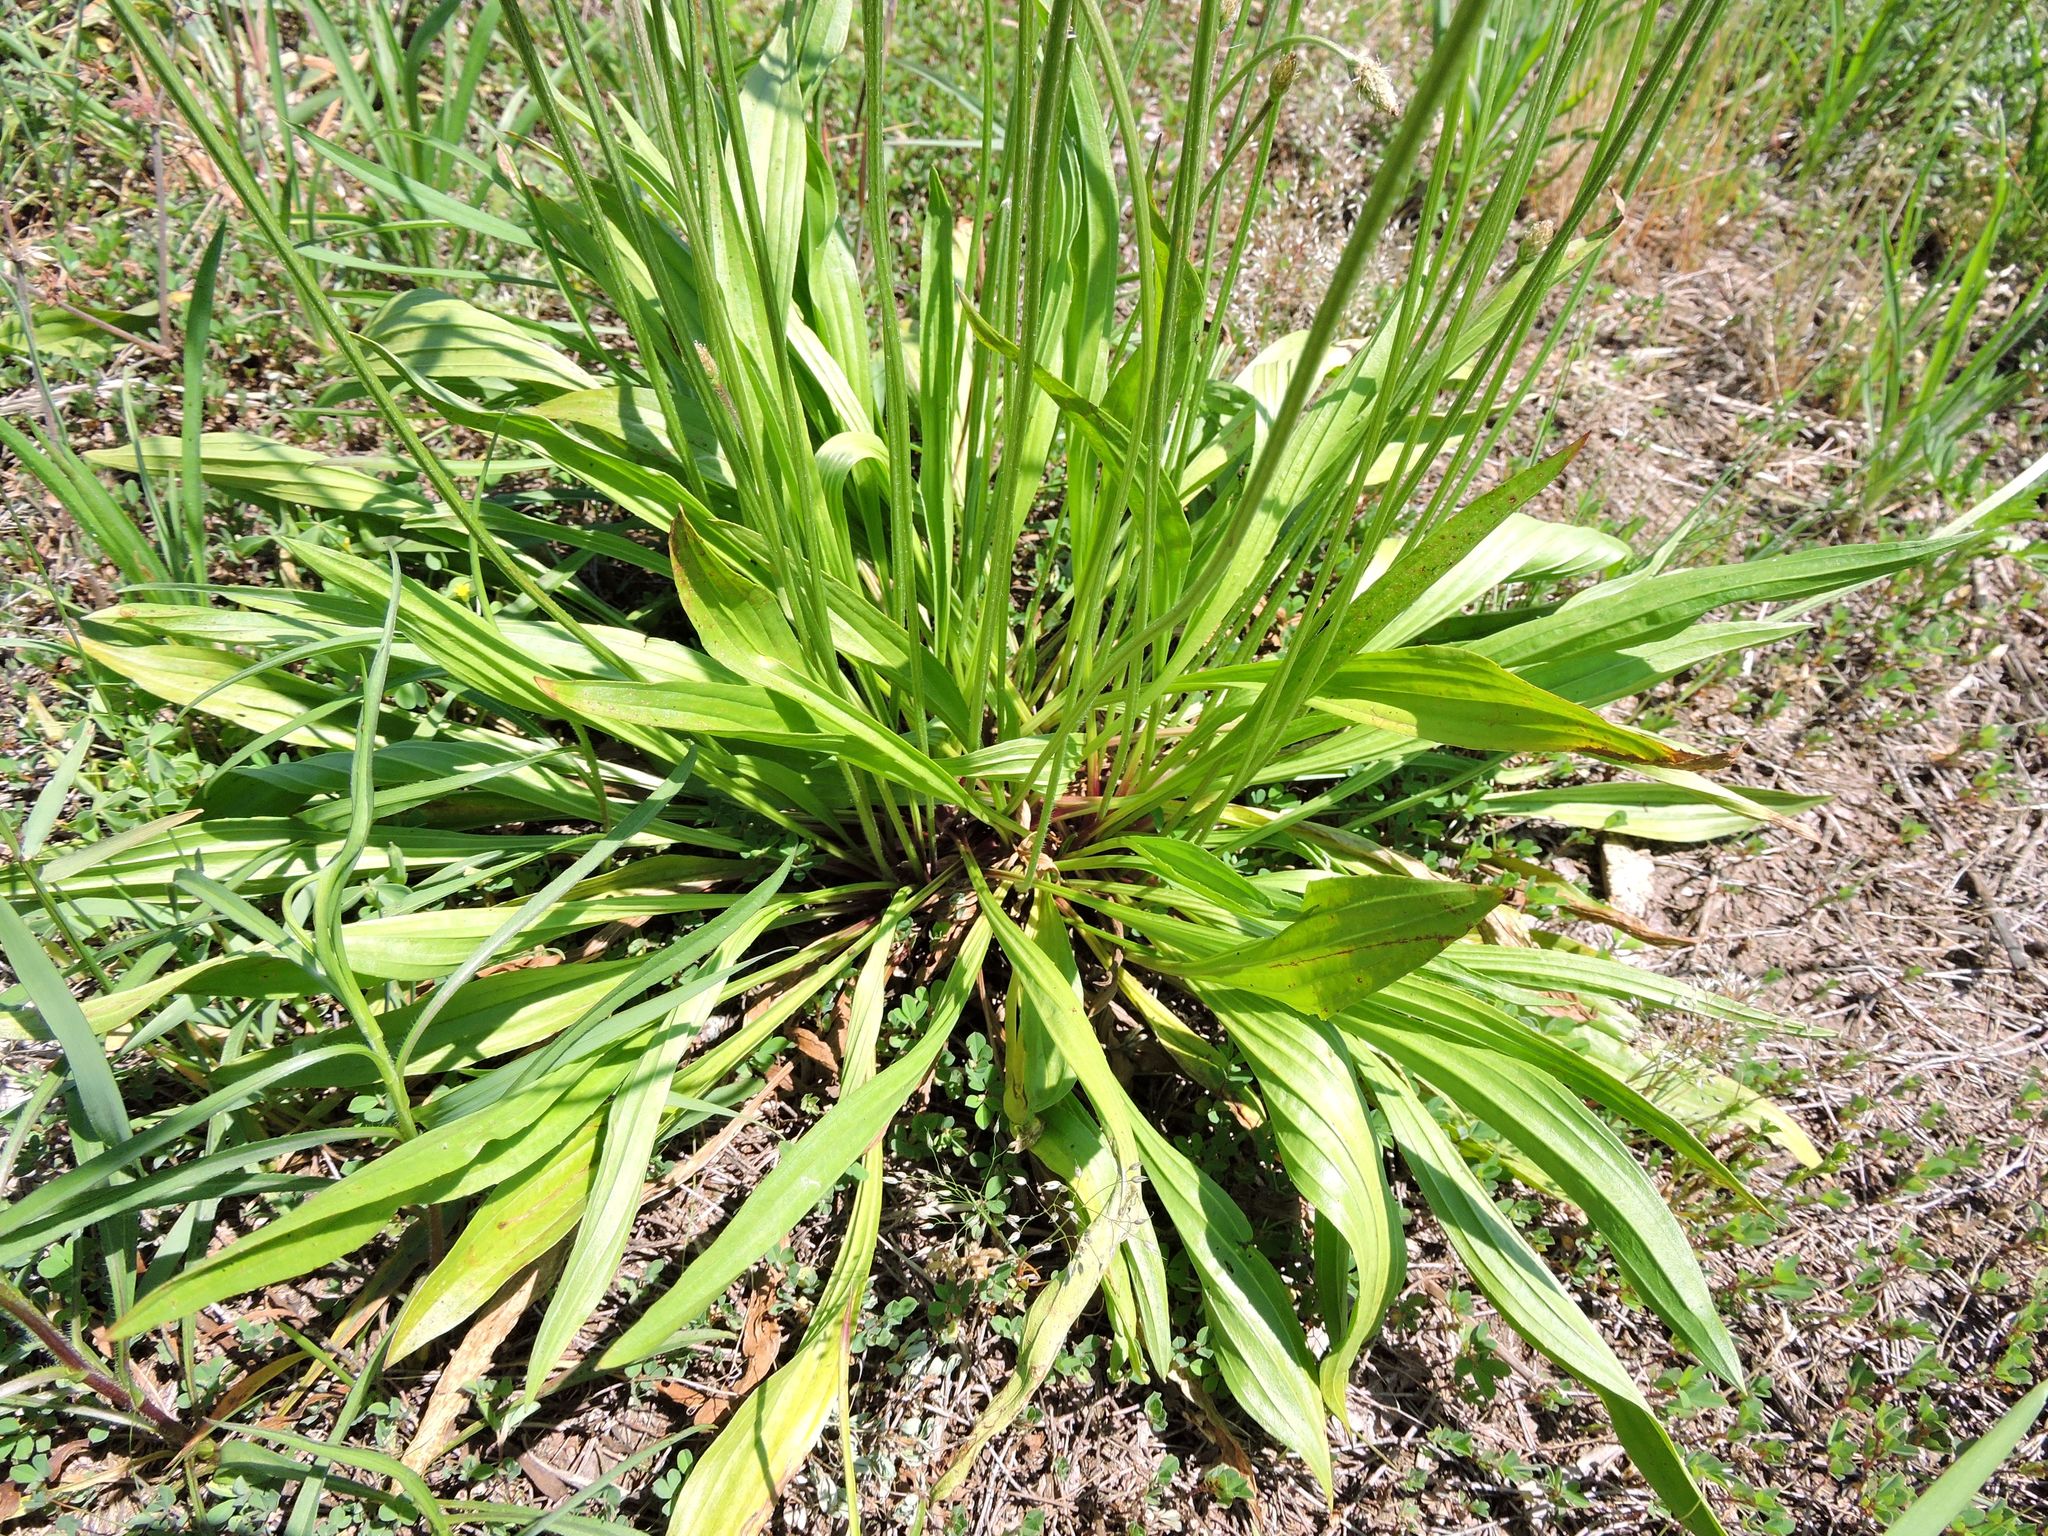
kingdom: Plantae
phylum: Tracheophyta
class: Magnoliopsida
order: Lamiales
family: Plantaginaceae
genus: Plantago
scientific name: Plantago lanceolata
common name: Ribwort plantain
